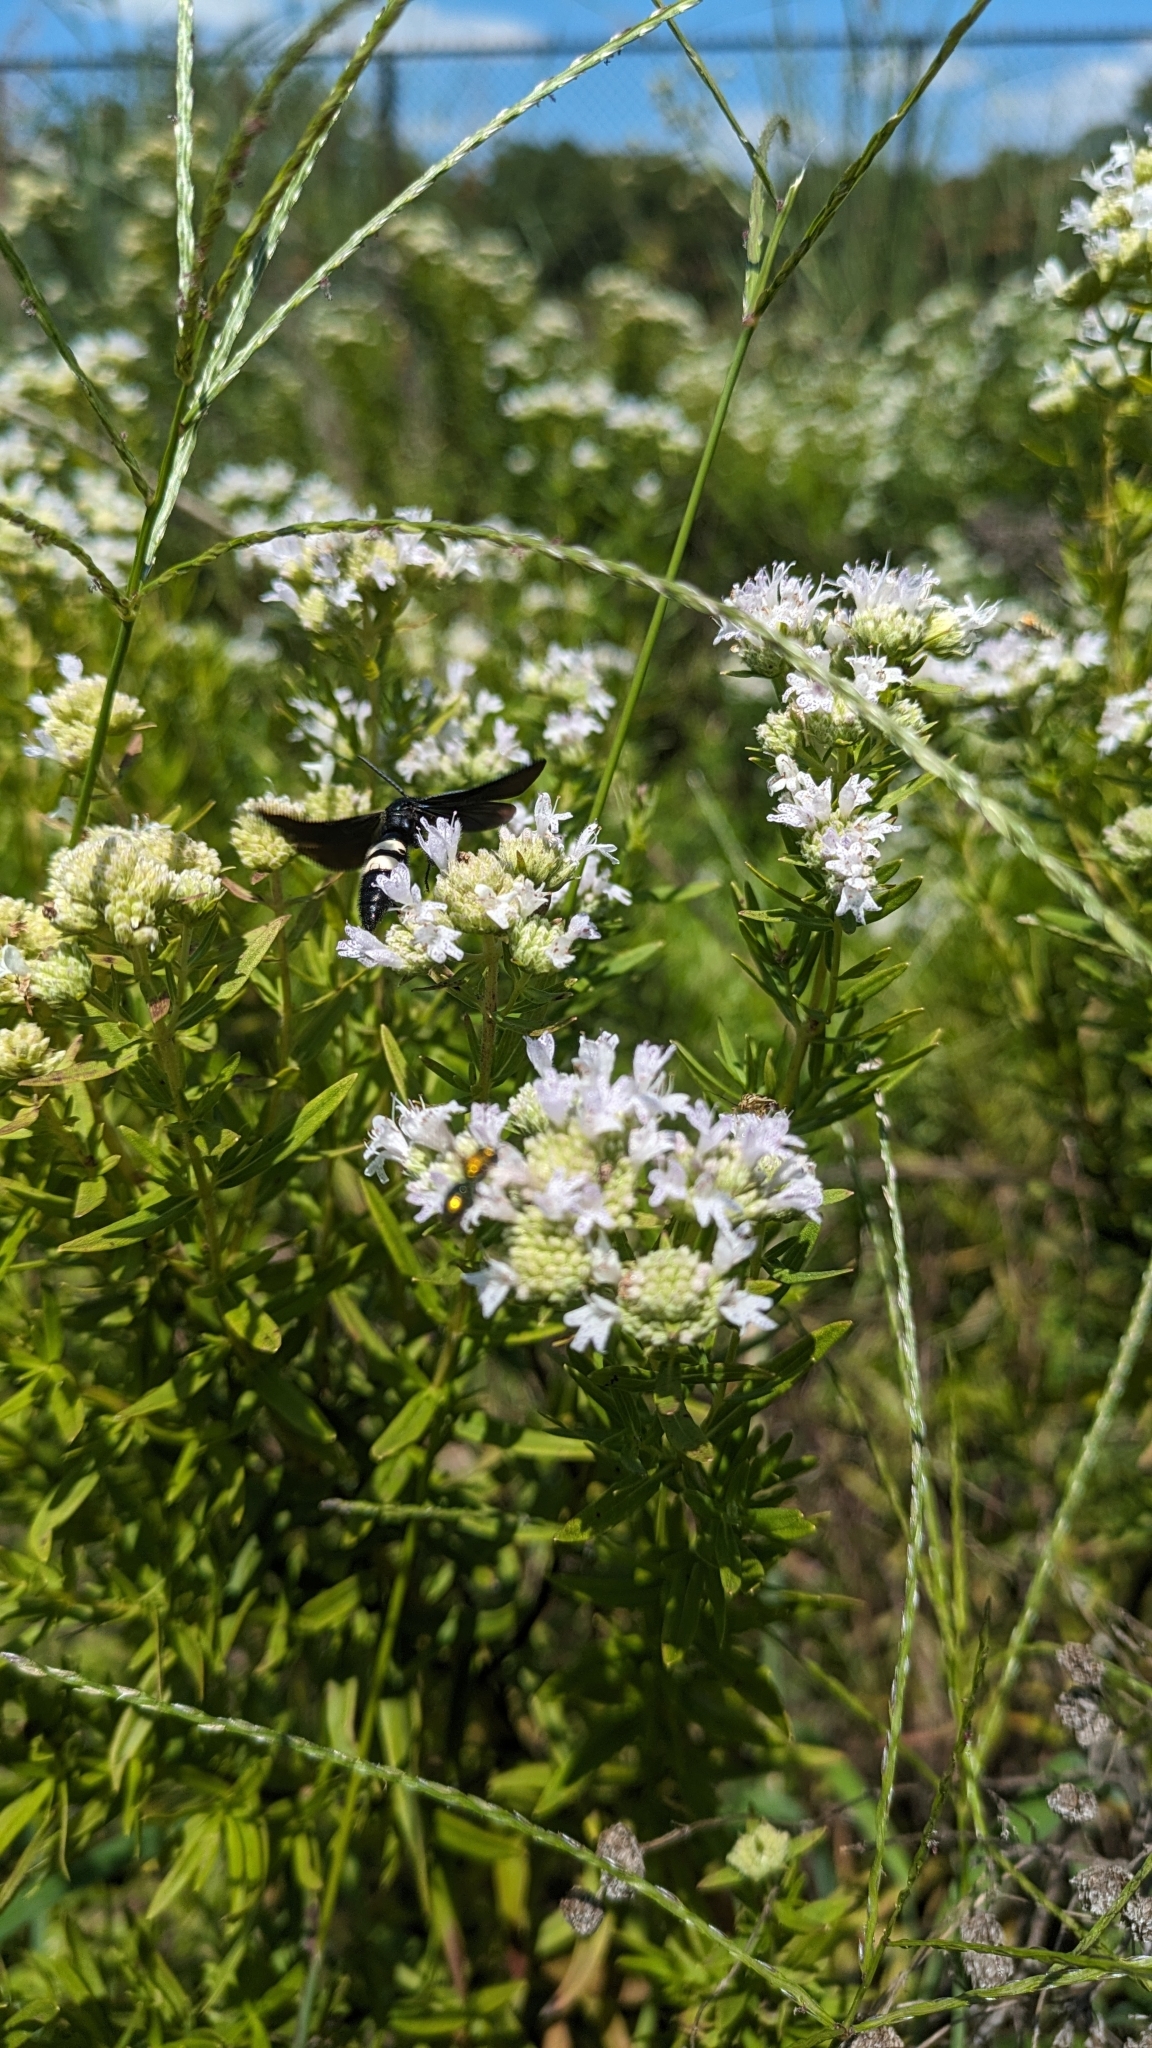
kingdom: Animalia
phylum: Arthropoda
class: Insecta
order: Hymenoptera
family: Scoliidae
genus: Scolia
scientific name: Scolia bicincta
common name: Double-banded scoliid wasp
